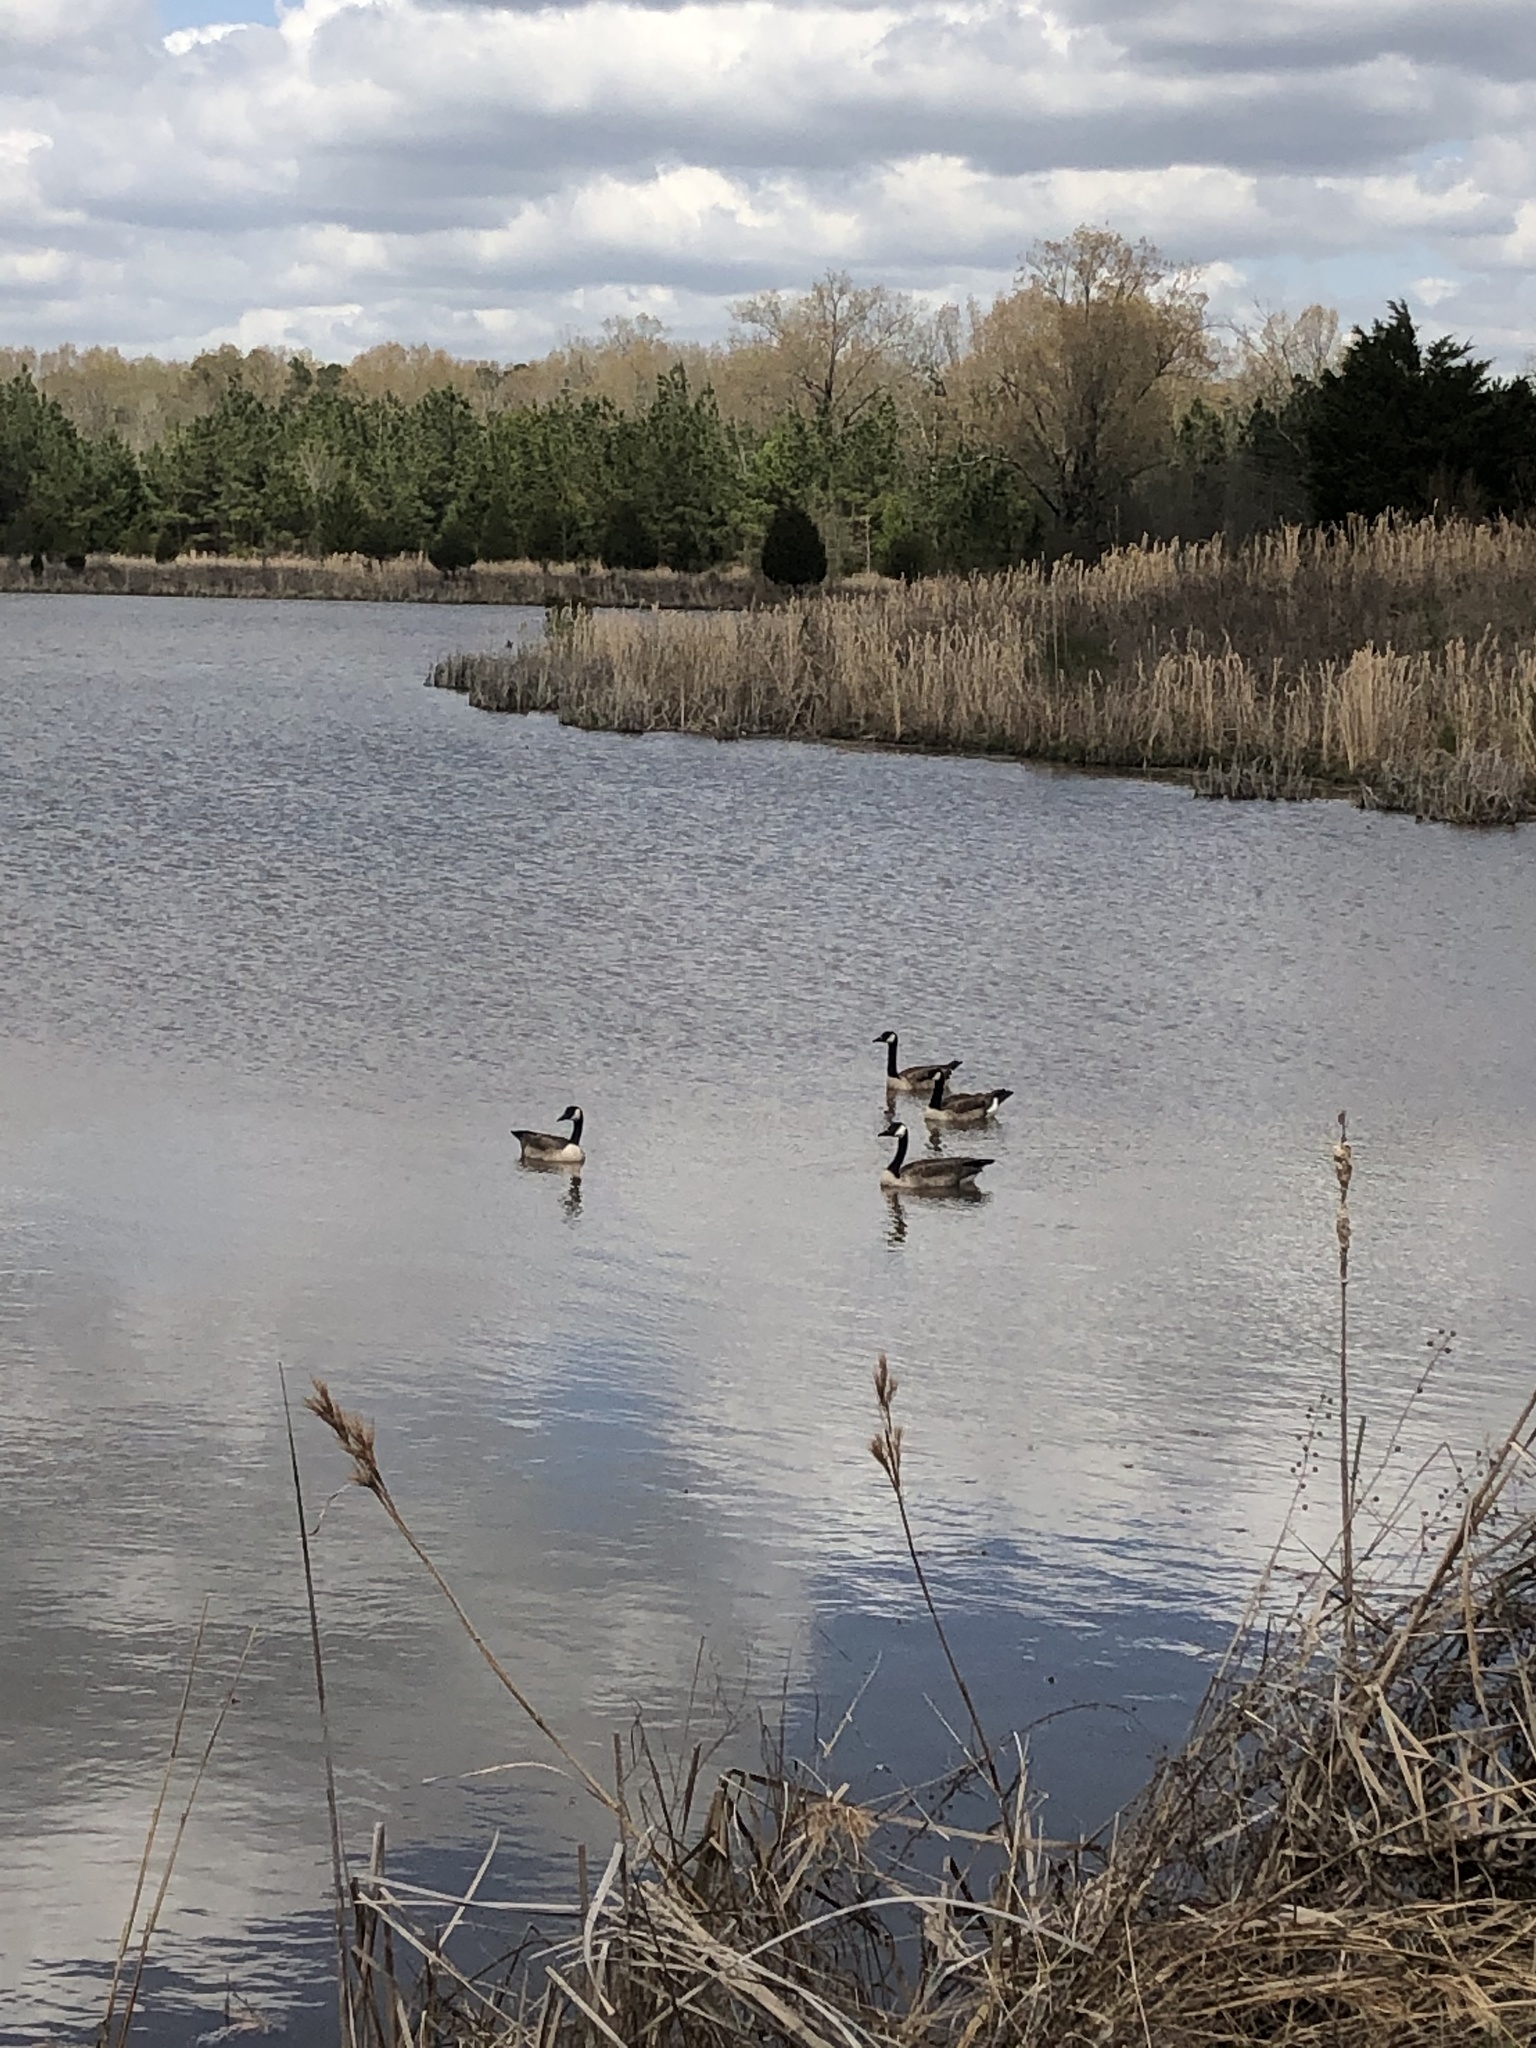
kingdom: Animalia
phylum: Chordata
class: Aves
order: Anseriformes
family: Anatidae
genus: Branta
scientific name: Branta canadensis
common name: Canada goose
